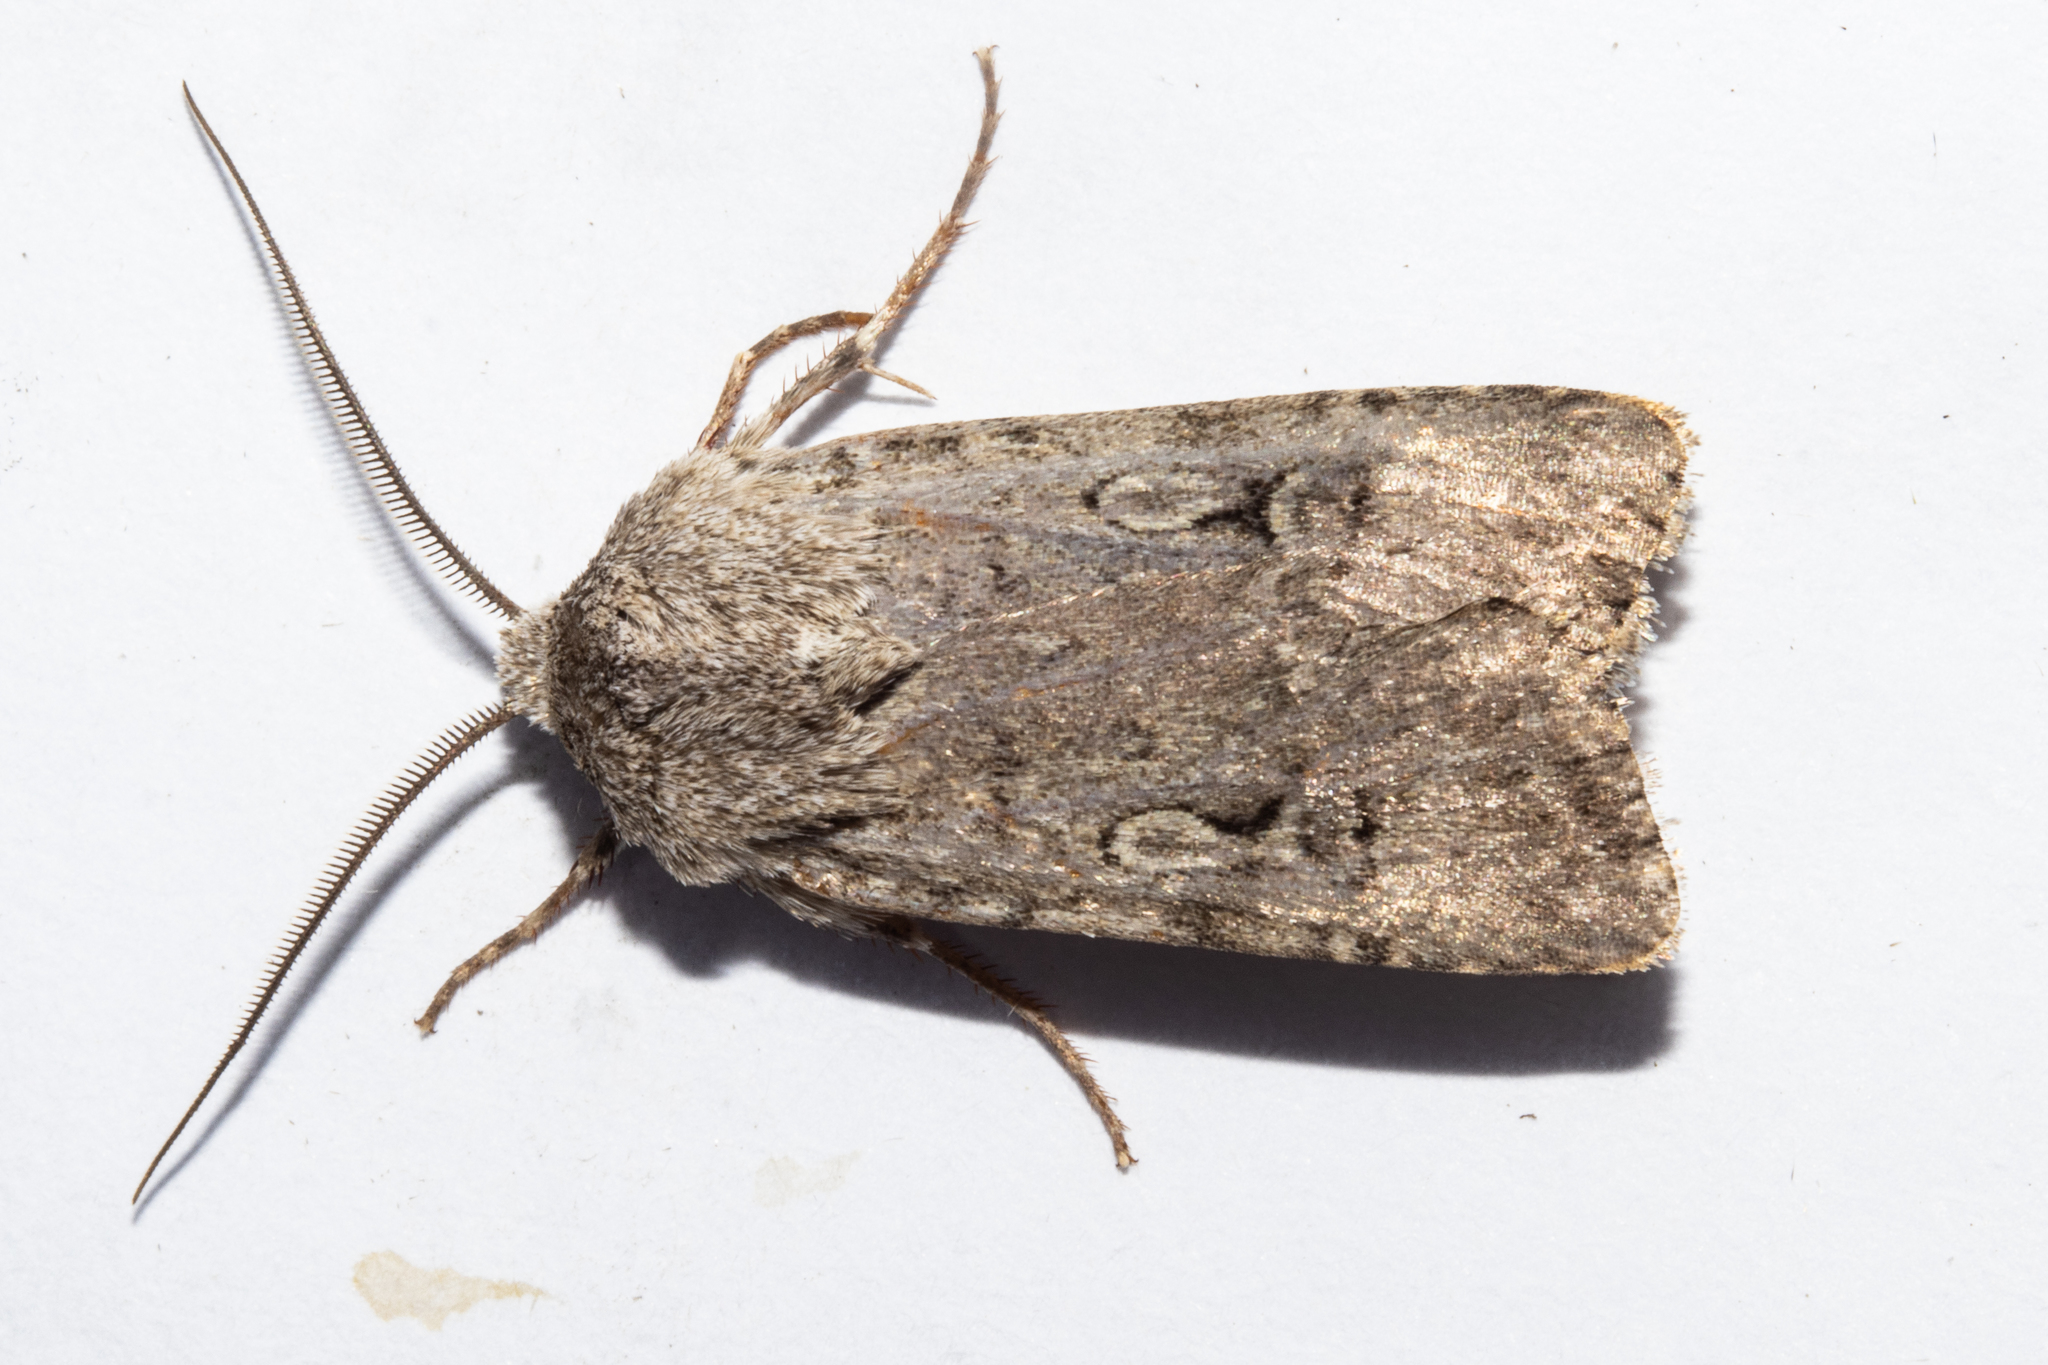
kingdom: Animalia
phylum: Arthropoda
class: Insecta
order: Lepidoptera
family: Noctuidae
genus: Agrotis
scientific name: Agrotis admirationis
